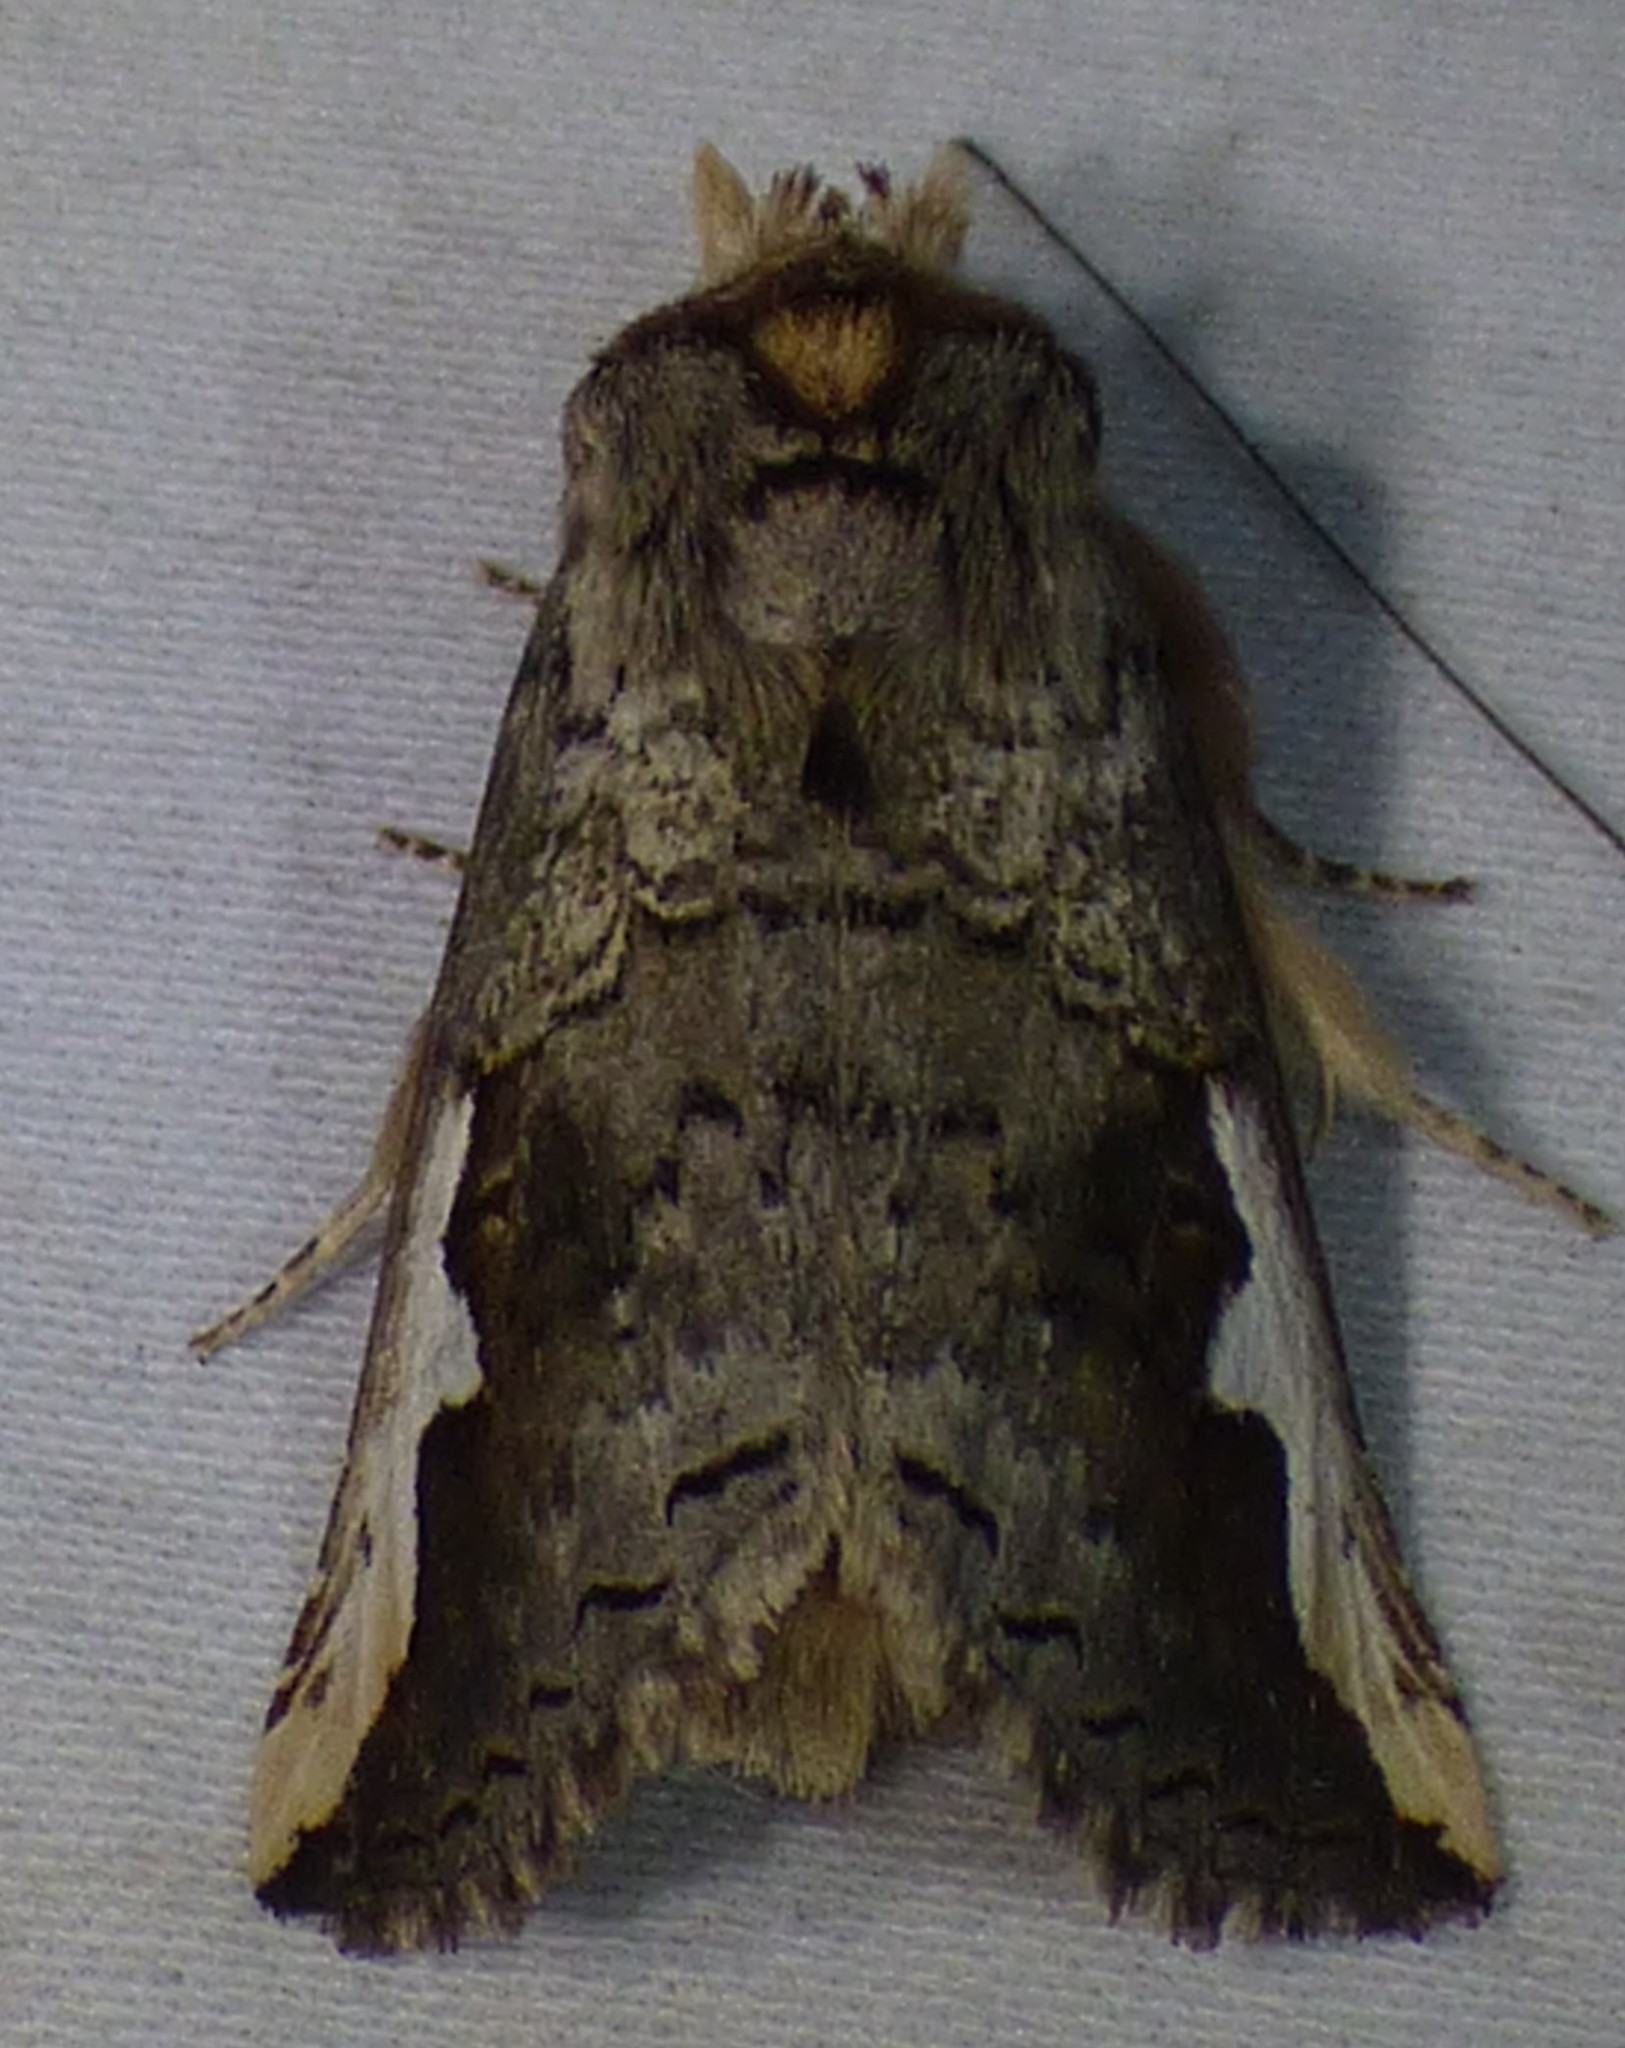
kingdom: Animalia
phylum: Arthropoda
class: Insecta
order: Lepidoptera
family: Notodontidae
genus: Symmerista
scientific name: Symmerista albifrons
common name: White-headed prominent
